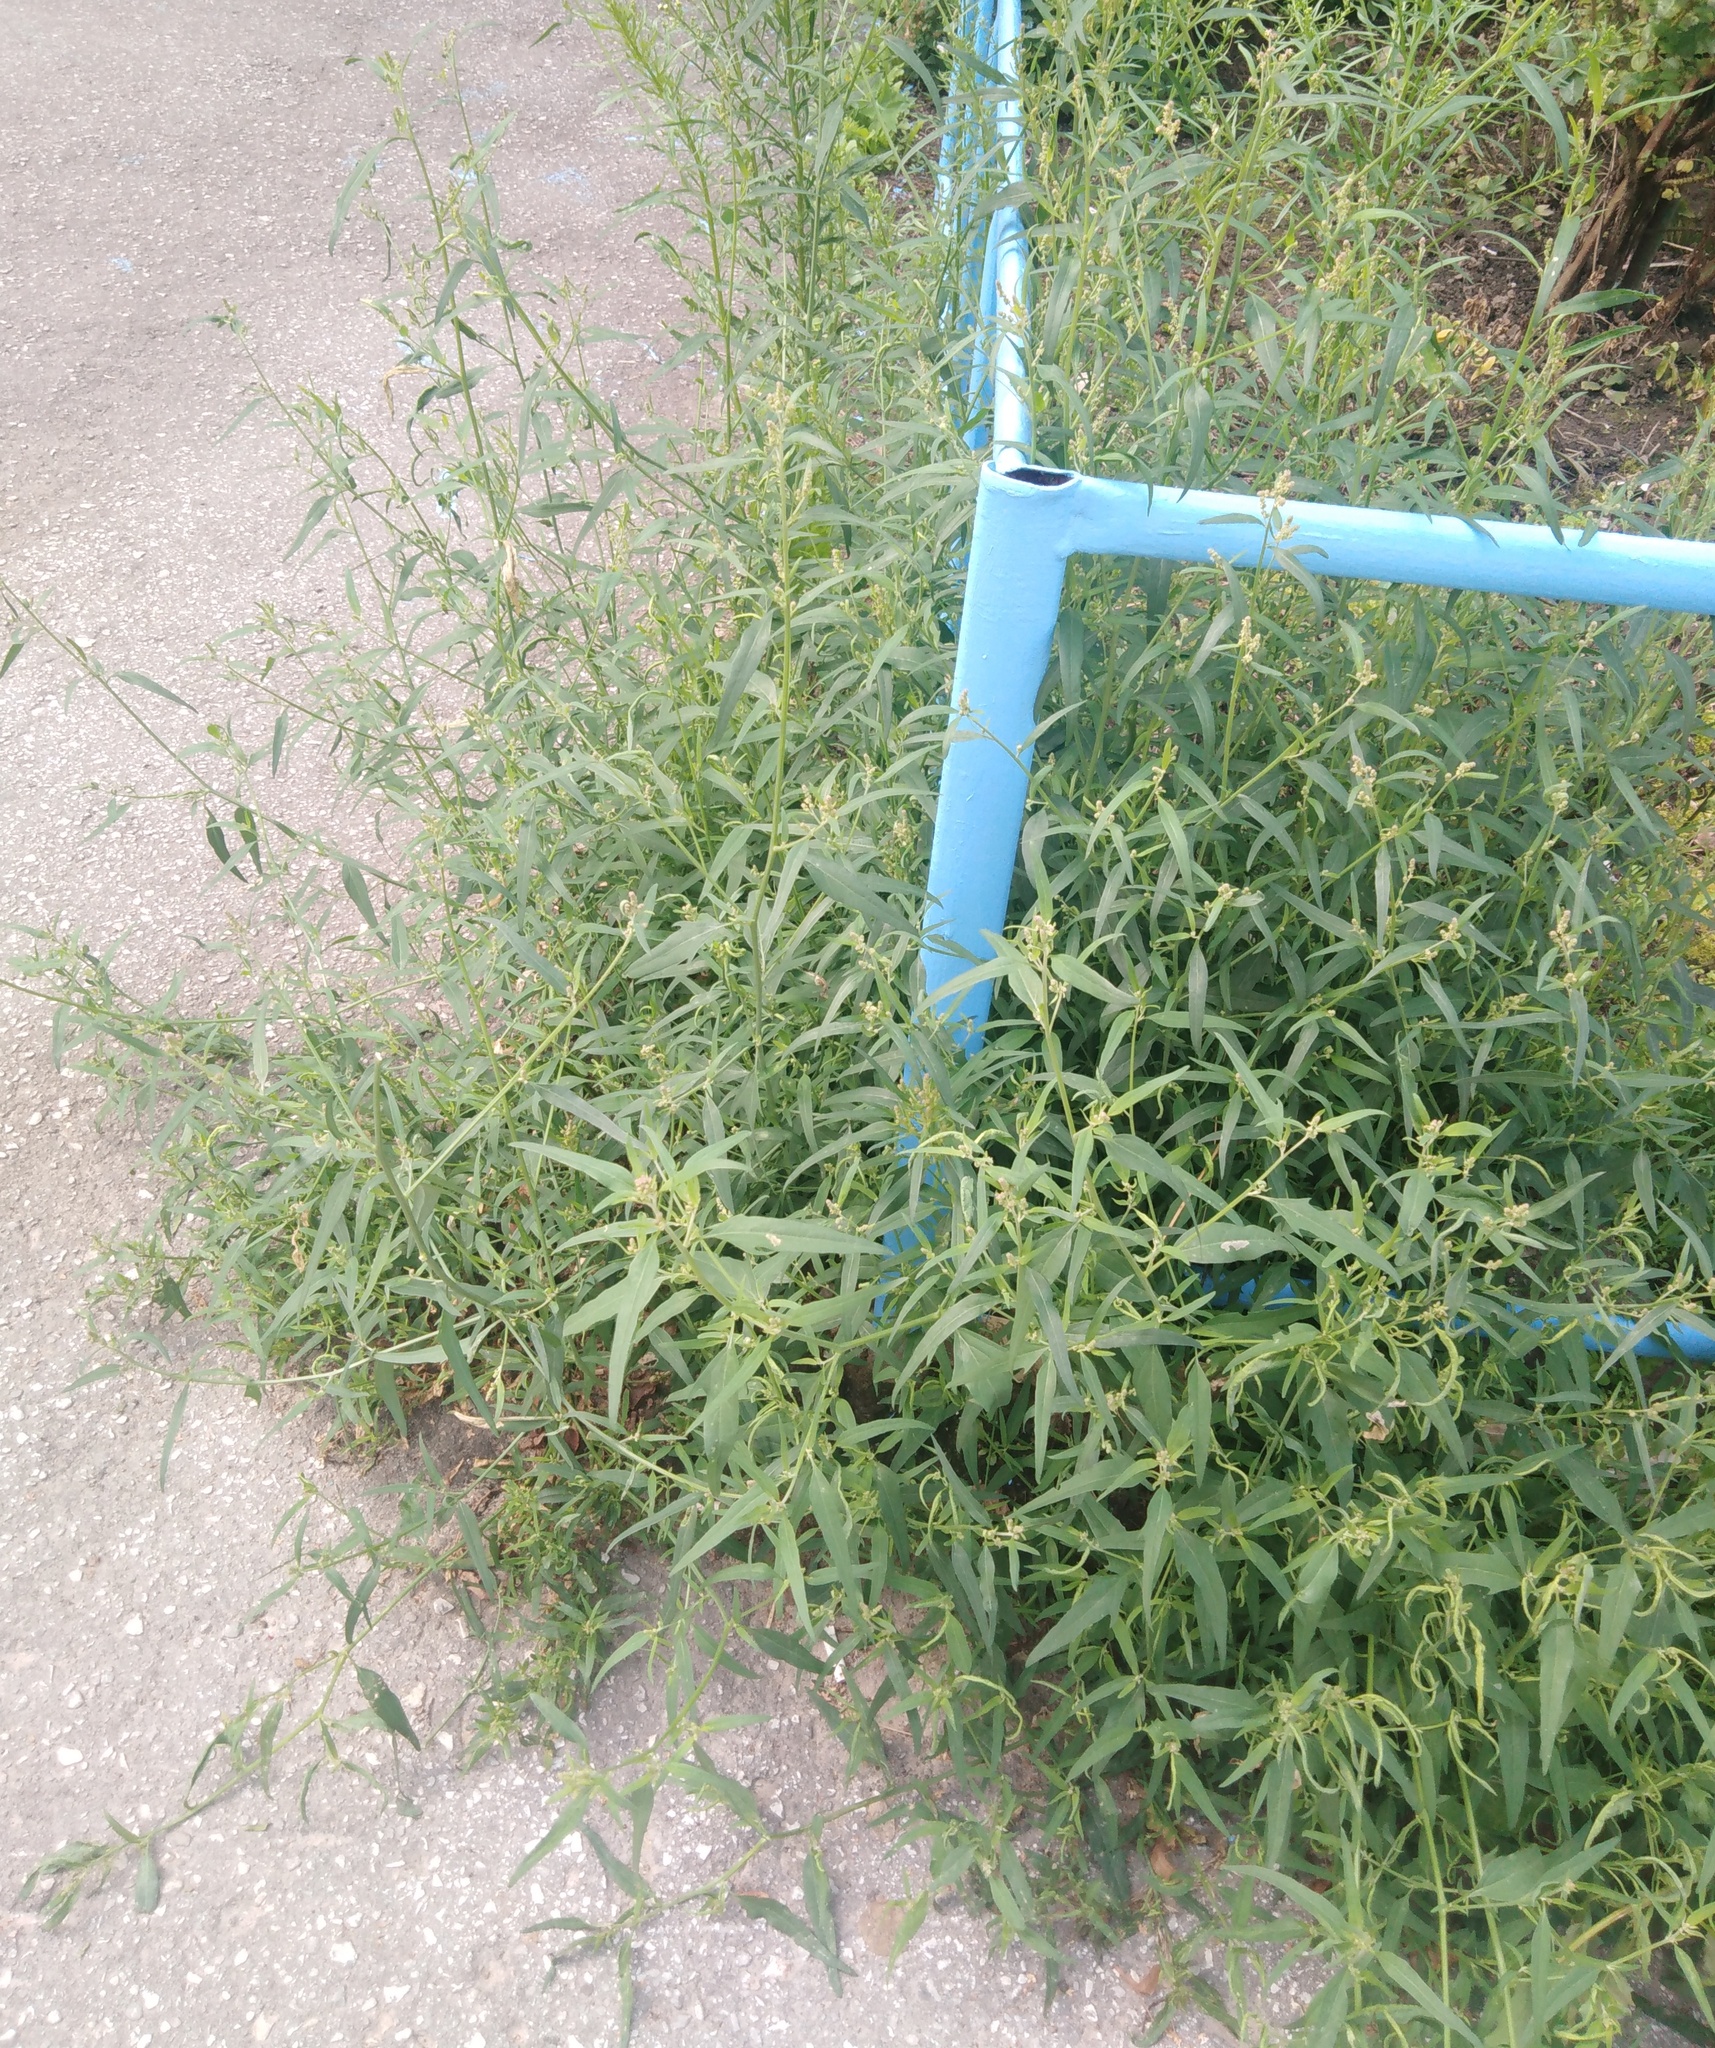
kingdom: Plantae
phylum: Tracheophyta
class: Magnoliopsida
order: Caryophyllales
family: Amaranthaceae
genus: Atriplex
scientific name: Atriplex oblongifolia
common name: Oblongleaf orache
